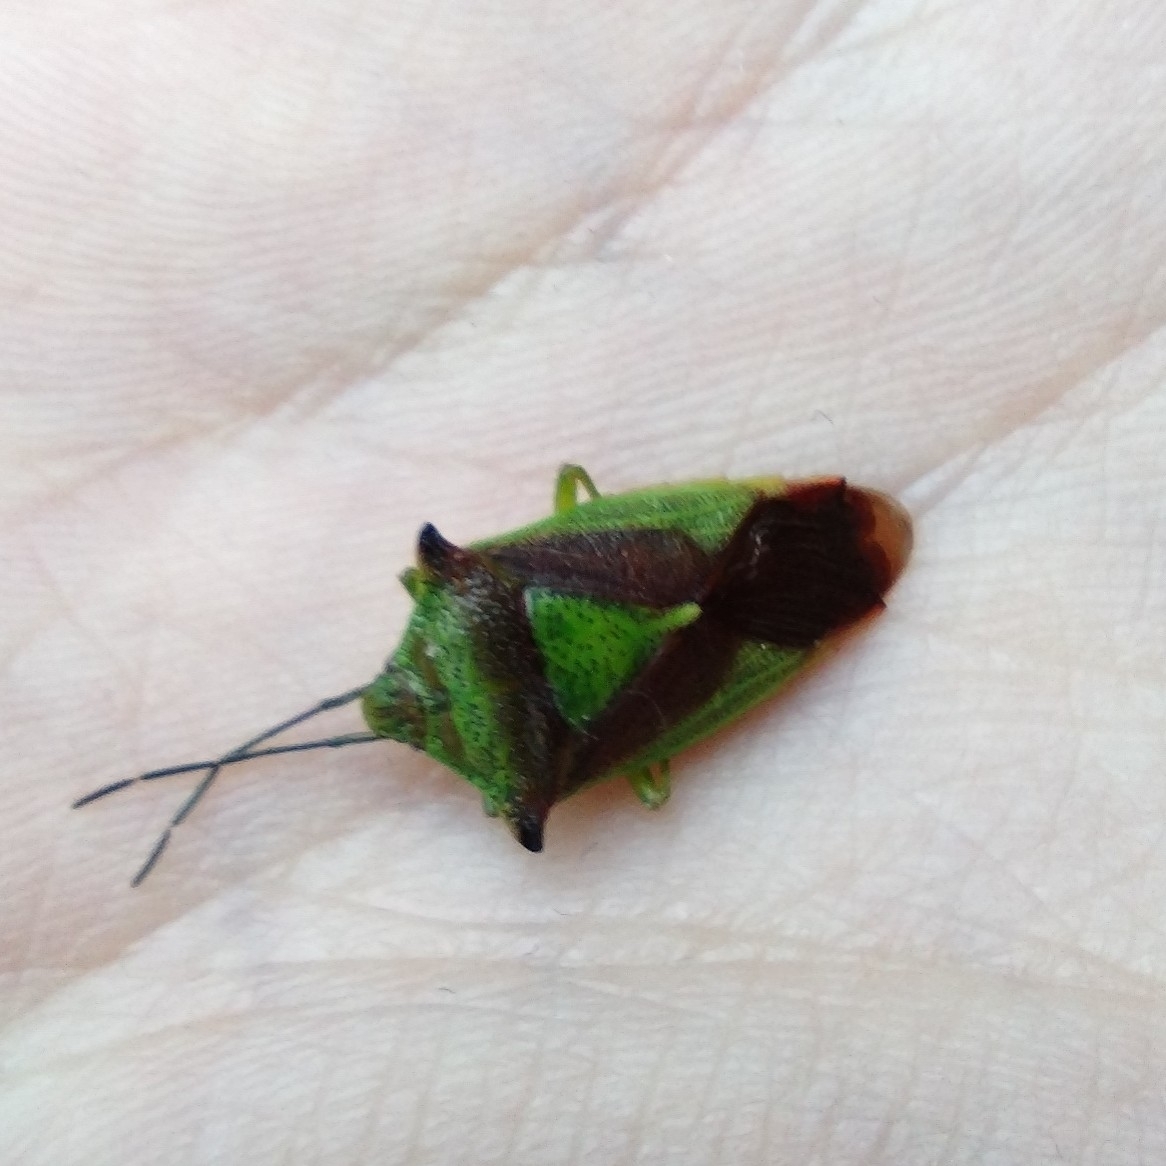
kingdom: Animalia
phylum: Arthropoda
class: Insecta
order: Hemiptera
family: Acanthosomatidae
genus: Acanthosoma
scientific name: Acanthosoma haemorrhoidale
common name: Hawthorn shieldbug
